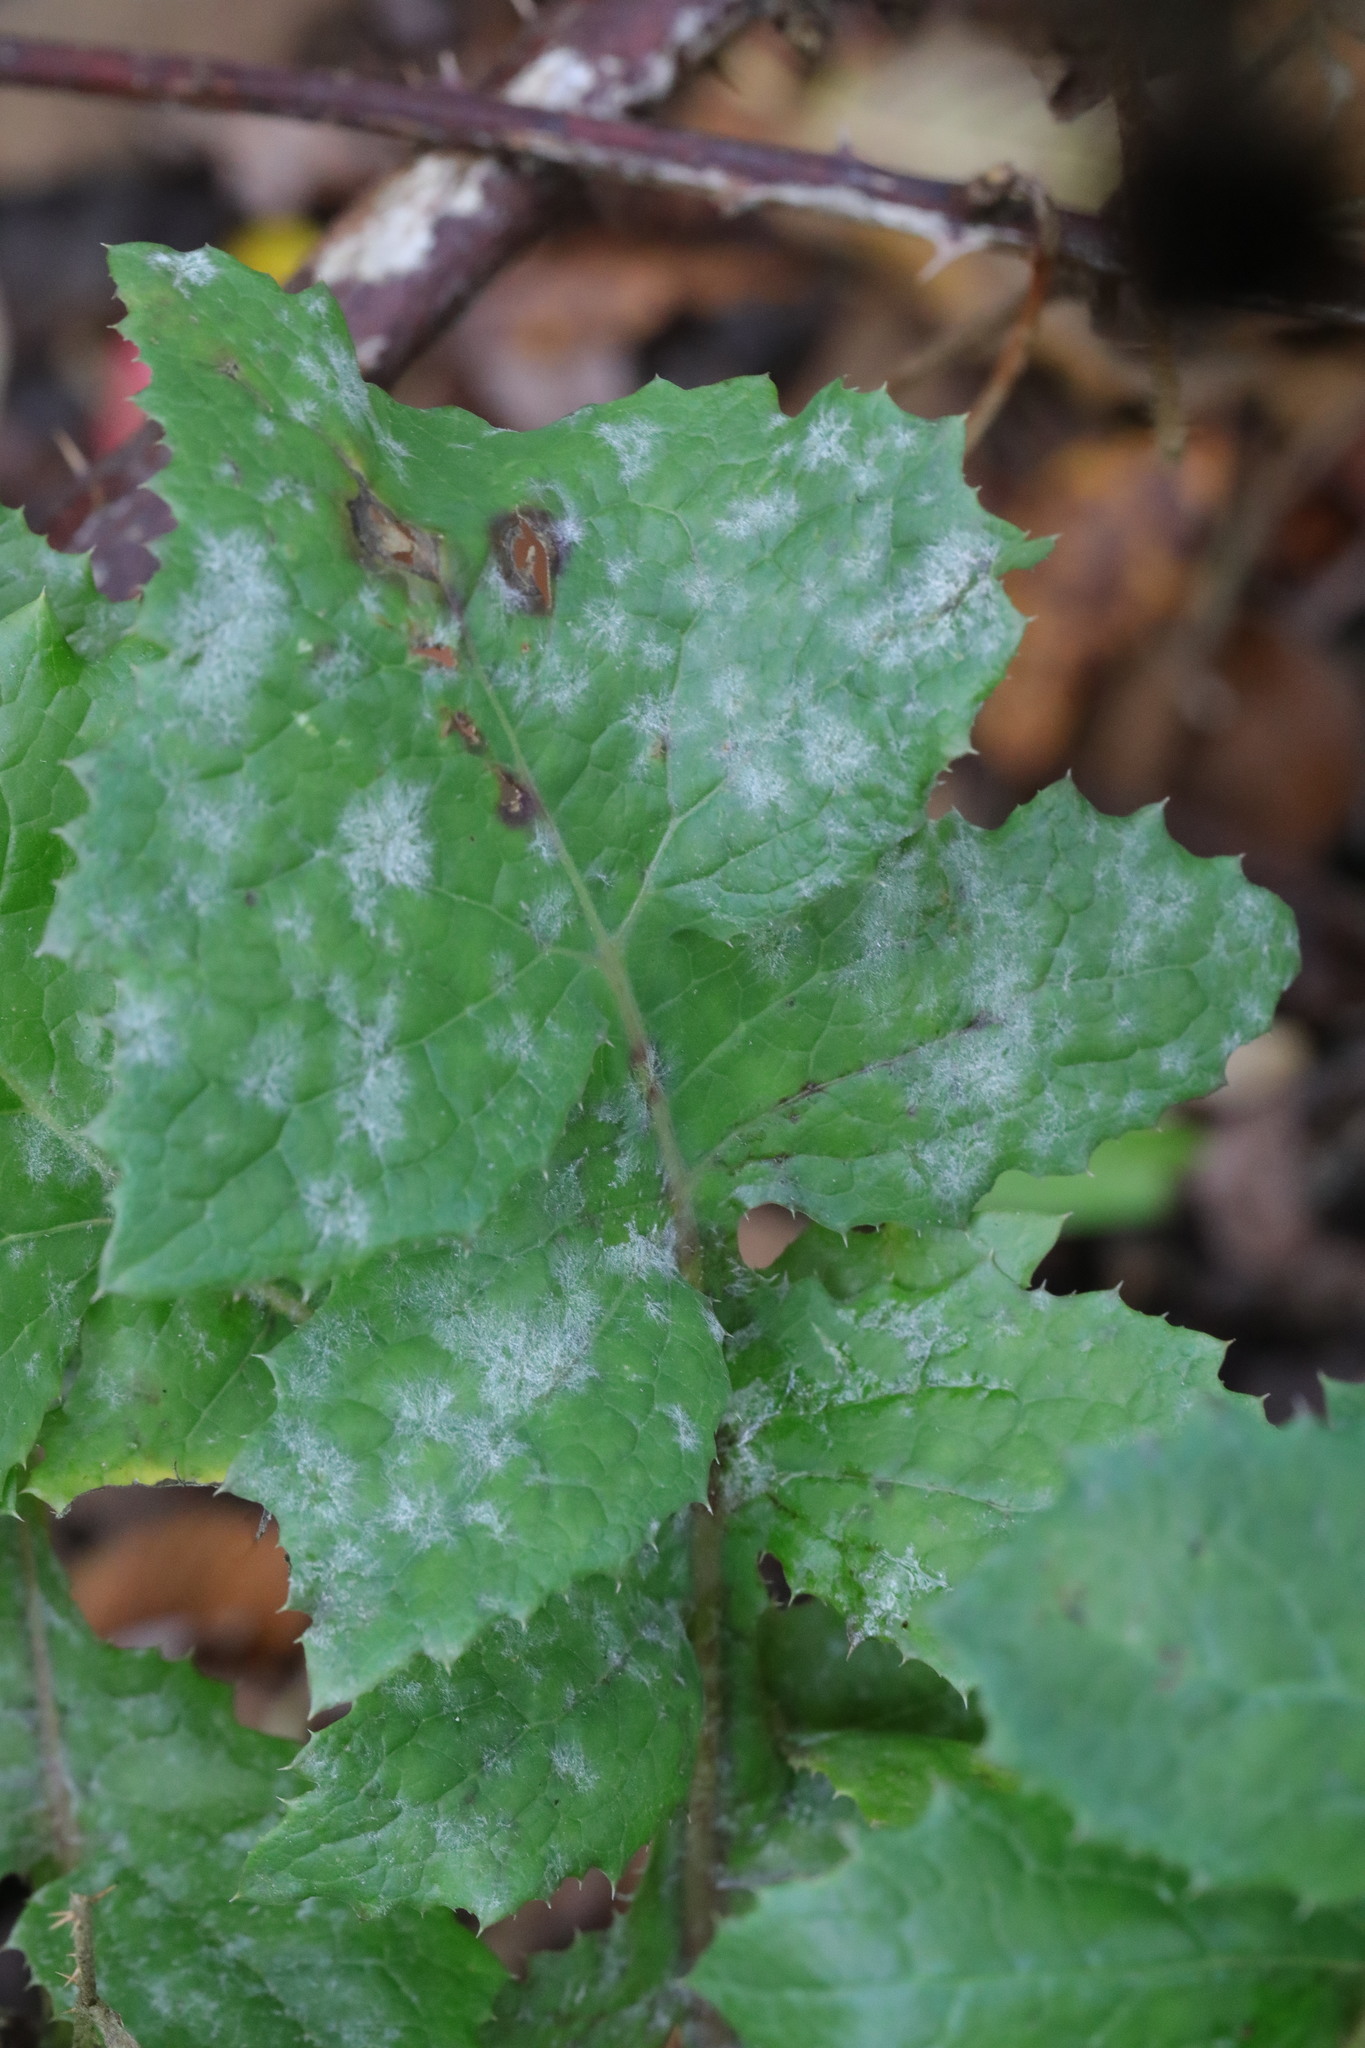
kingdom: Fungi
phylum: Ascomycota
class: Leotiomycetes
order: Helotiales
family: Erysiphaceae
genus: Golovinomyces
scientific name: Golovinomyces sonchicola
